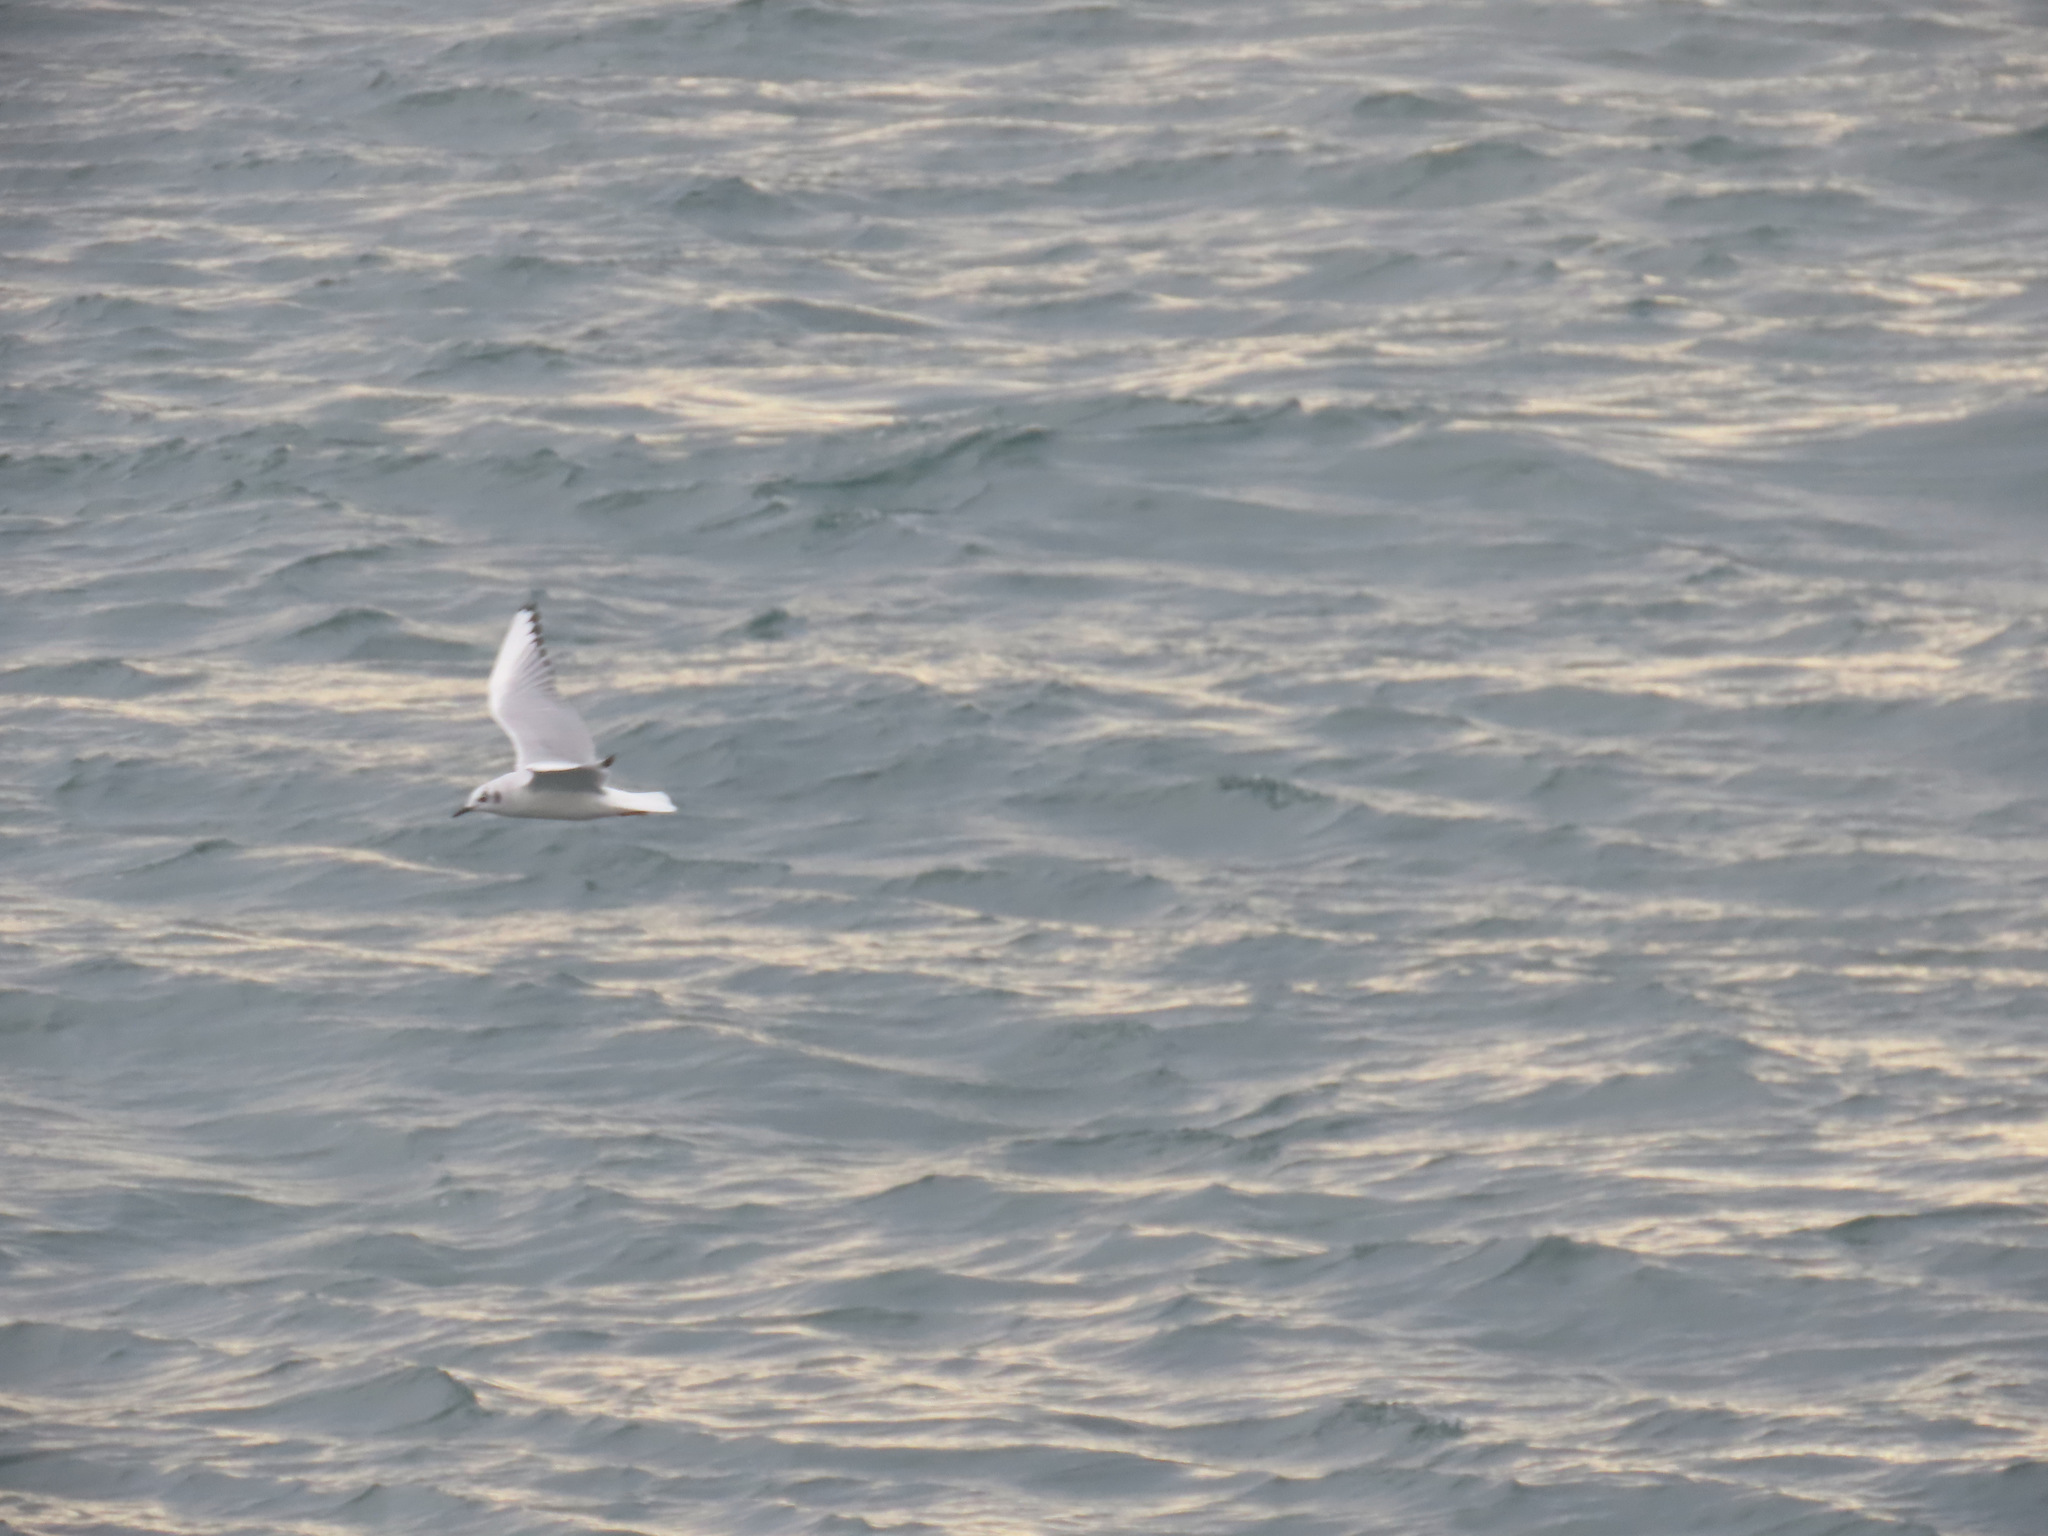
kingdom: Animalia
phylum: Chordata
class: Aves
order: Charadriiformes
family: Laridae
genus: Chroicocephalus
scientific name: Chroicocephalus philadelphia
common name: Bonaparte's gull
